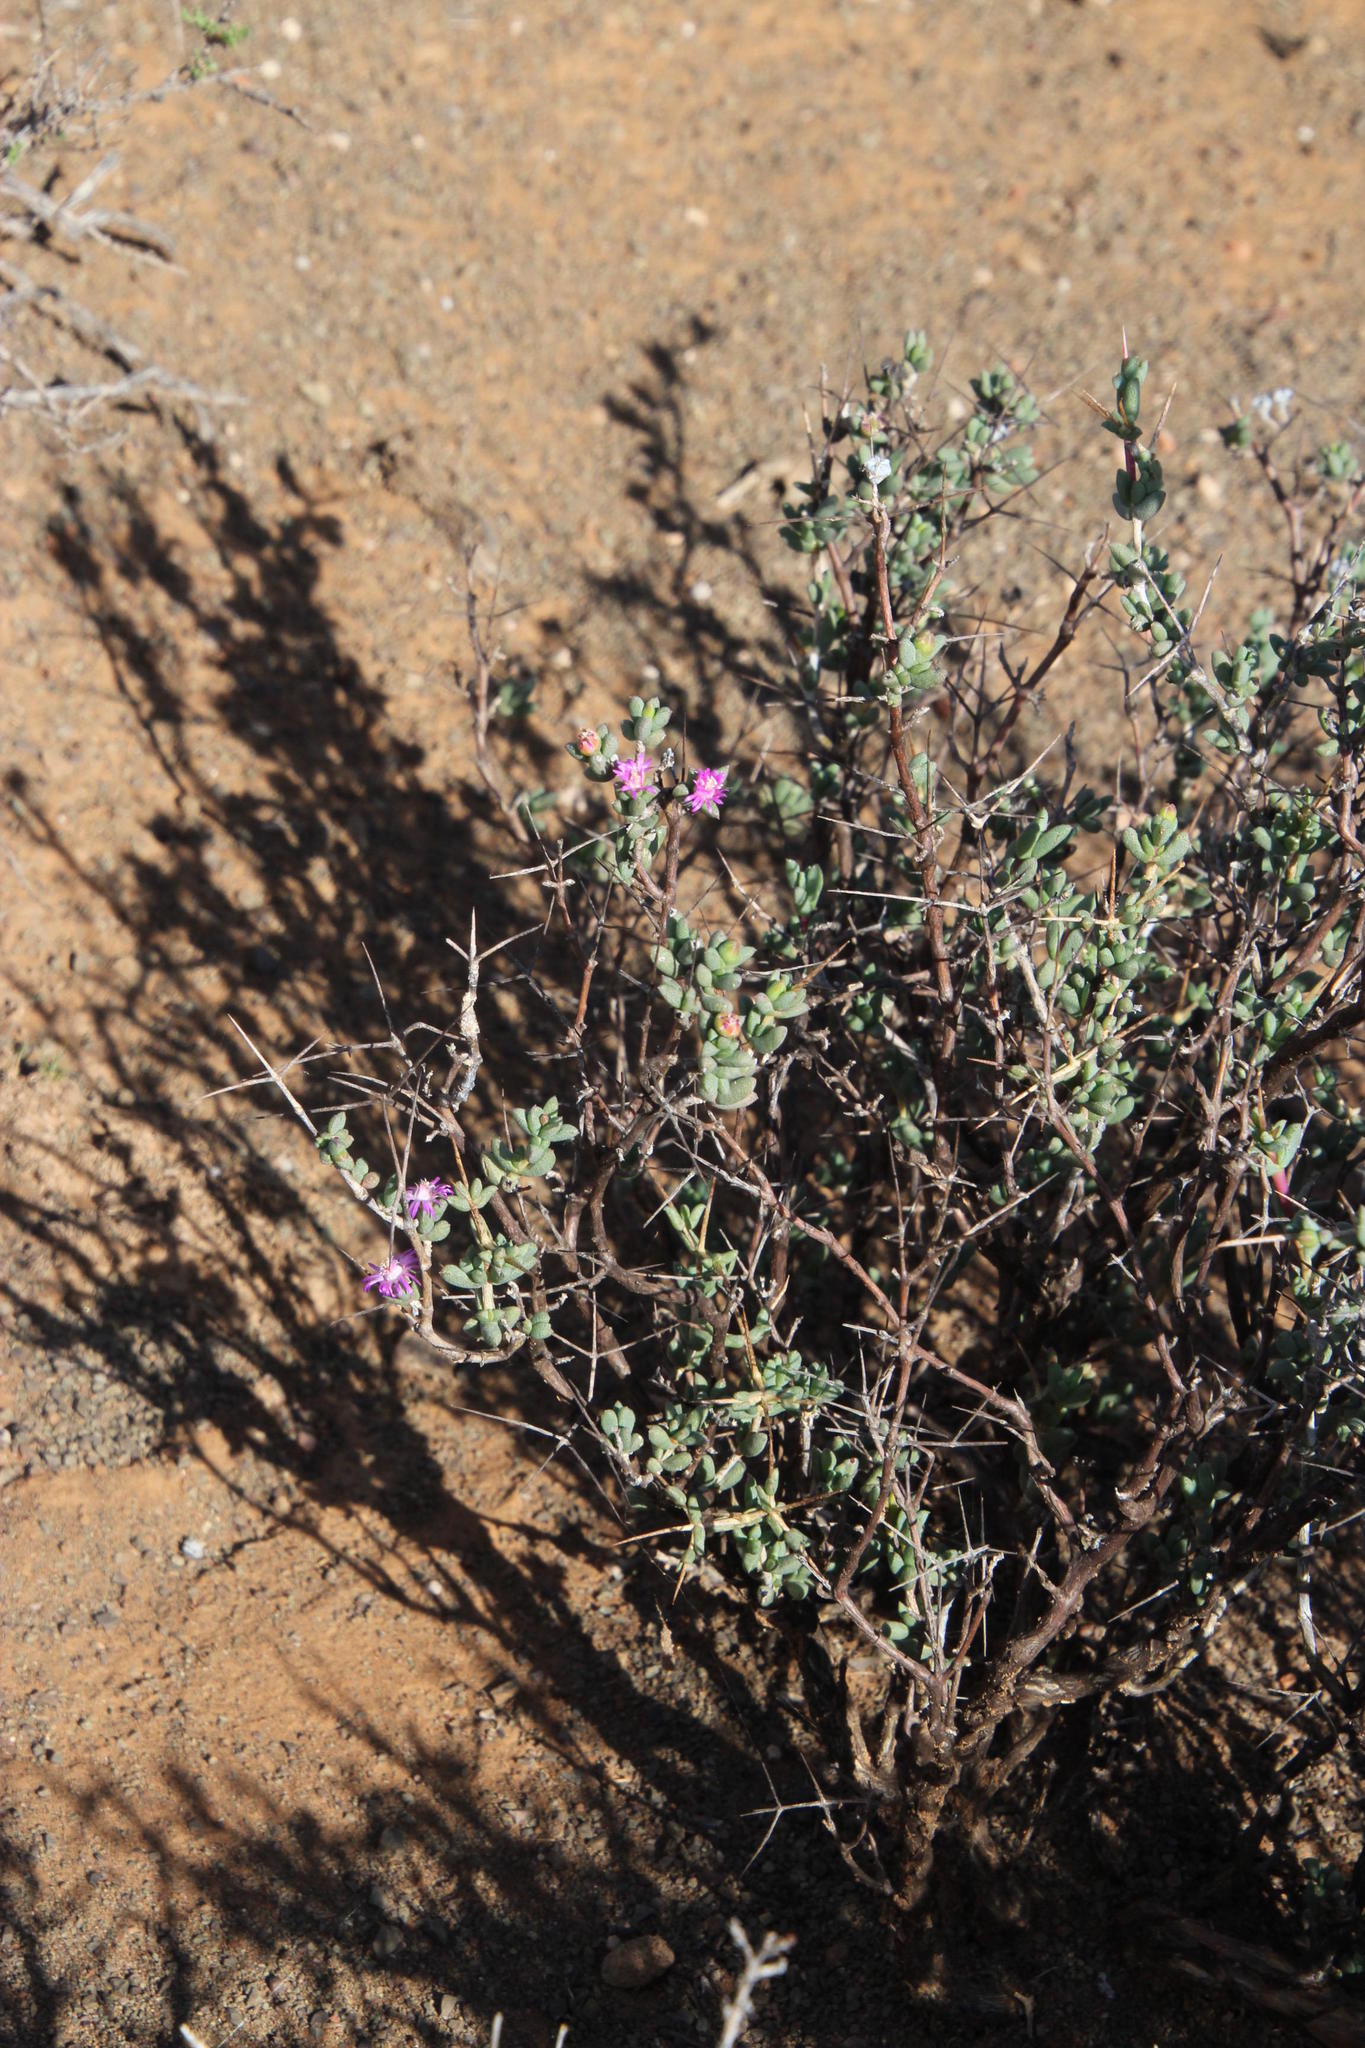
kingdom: Plantae
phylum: Tracheophyta
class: Magnoliopsida
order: Caryophyllales
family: Aizoaceae
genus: Ruschia
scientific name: Ruschia intricata
